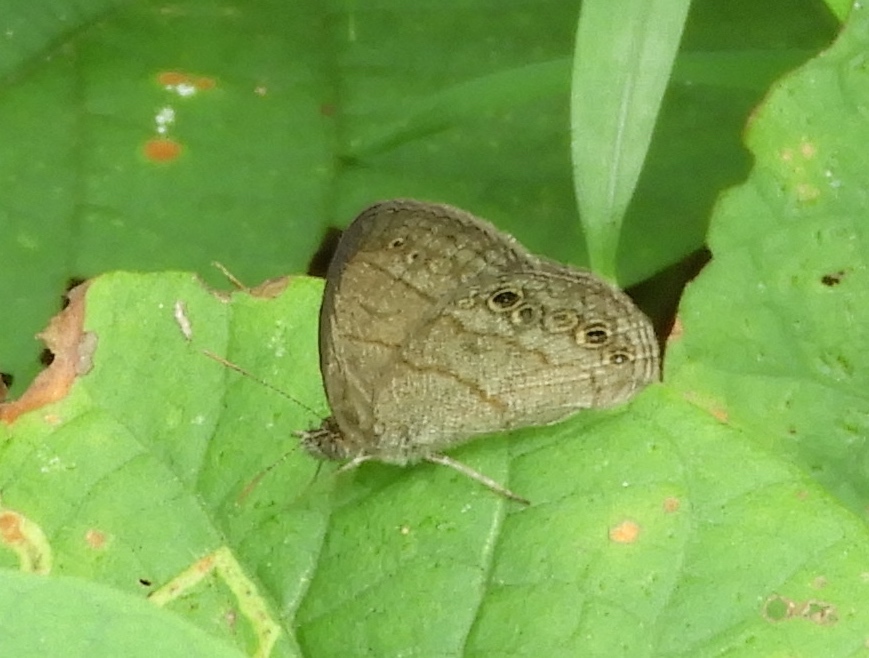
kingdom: Animalia
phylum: Arthropoda
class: Insecta
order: Lepidoptera
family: Nymphalidae
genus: Hermeuptychia
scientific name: Hermeuptychia hermes
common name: Hermes satyr
